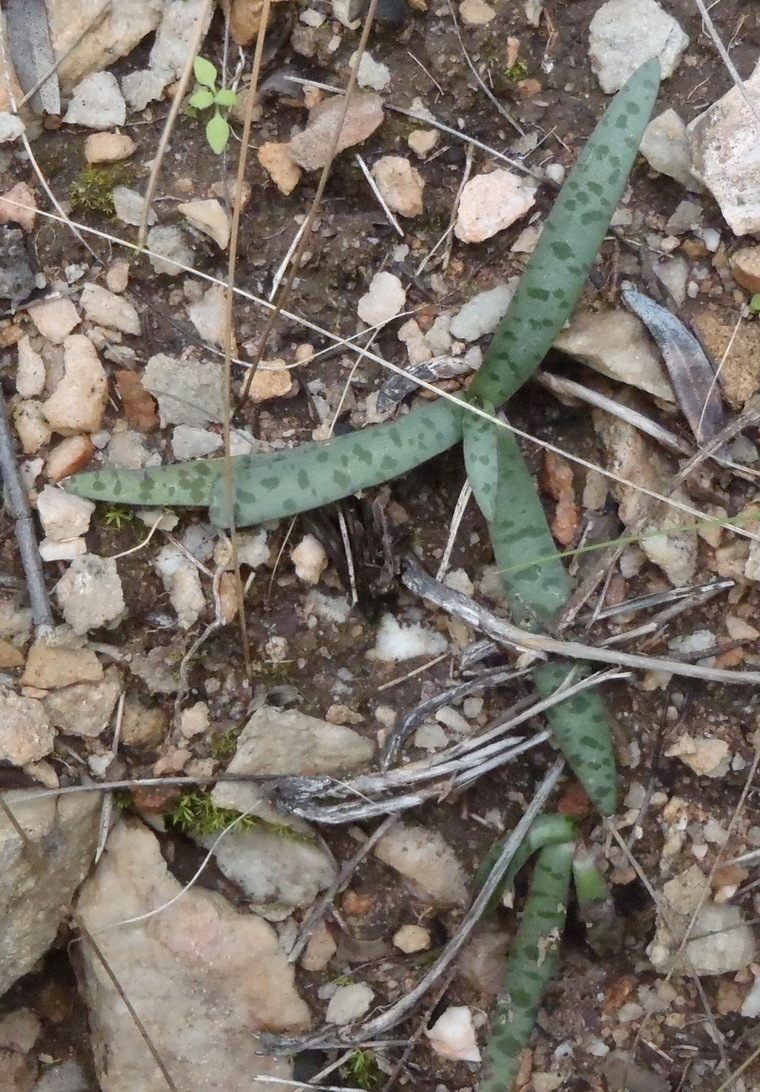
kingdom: Plantae
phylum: Tracheophyta
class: Liliopsida
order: Asparagales
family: Asparagaceae
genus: Ledebouria
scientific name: Ledebouria apertiflora
